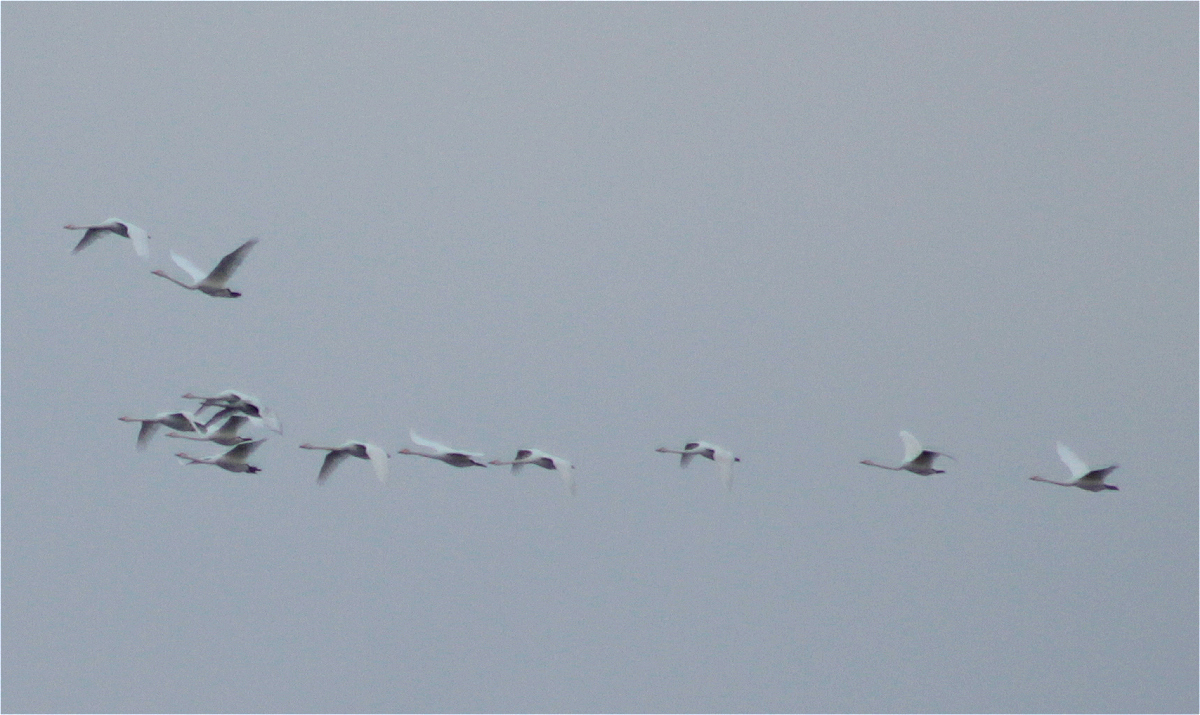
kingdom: Animalia
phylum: Chordata
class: Aves
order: Anseriformes
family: Anatidae
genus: Cygnus
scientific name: Cygnus cygnus
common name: Whooper swan
